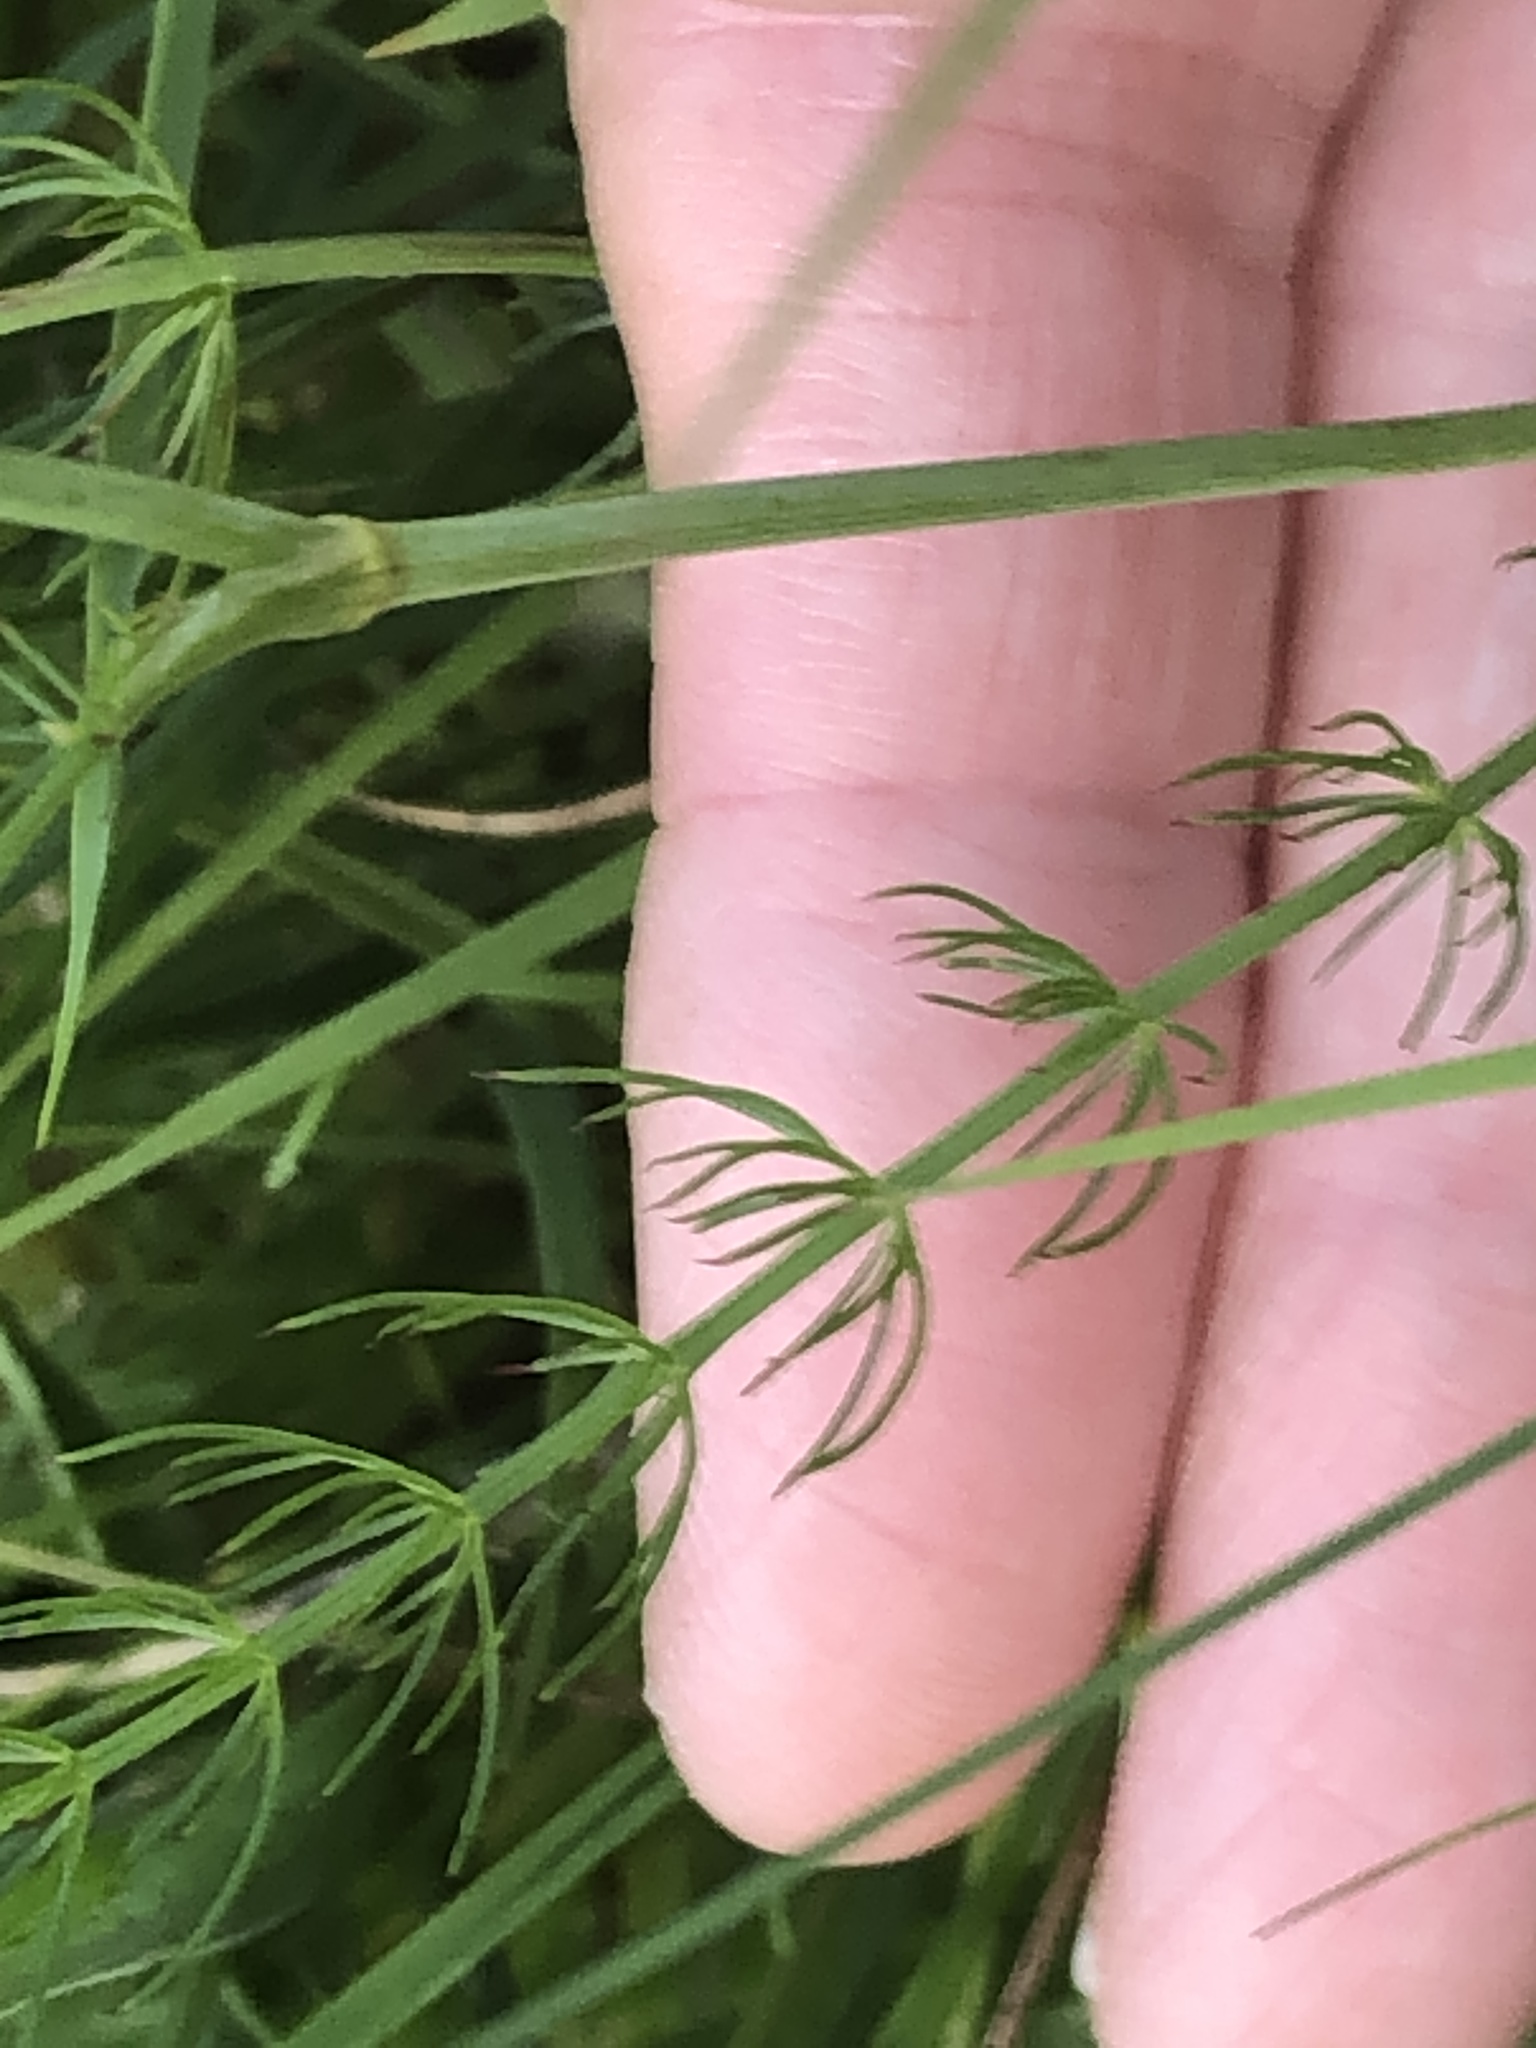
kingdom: Plantae
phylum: Tracheophyta
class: Magnoliopsida
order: Apiales
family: Apiaceae
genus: Trocdaris
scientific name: Trocdaris verticillatum
